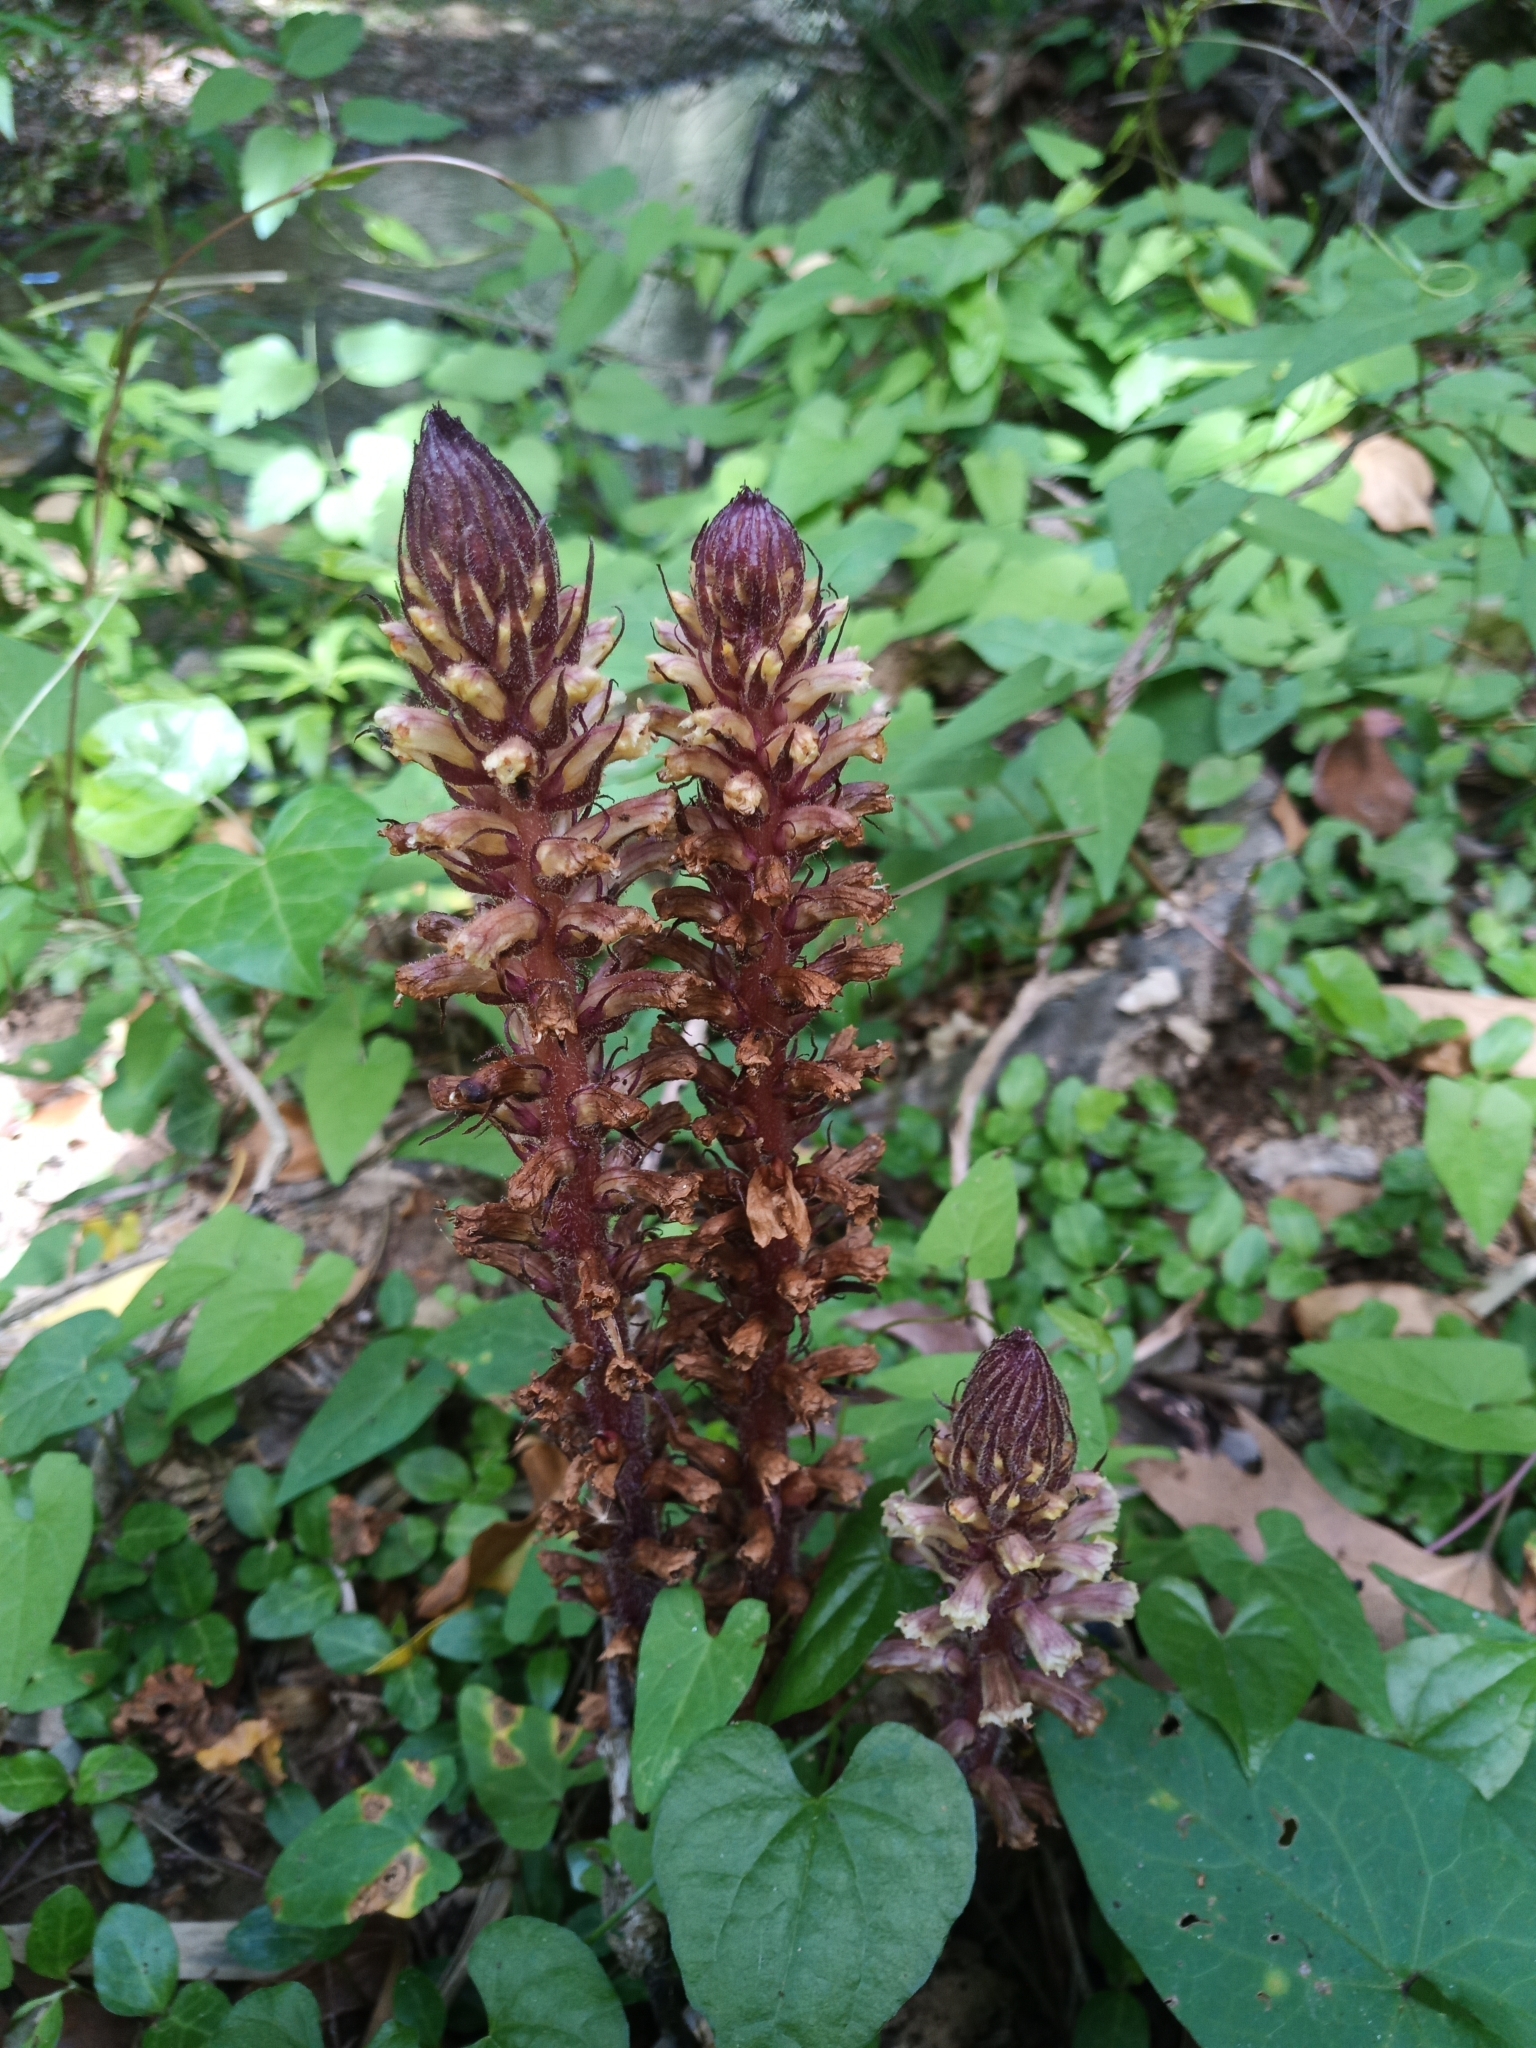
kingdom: Plantae
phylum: Tracheophyta
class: Magnoliopsida
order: Lamiales
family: Orobanchaceae
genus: Orobanche
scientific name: Orobanche hederae
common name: Ivy broomrape
